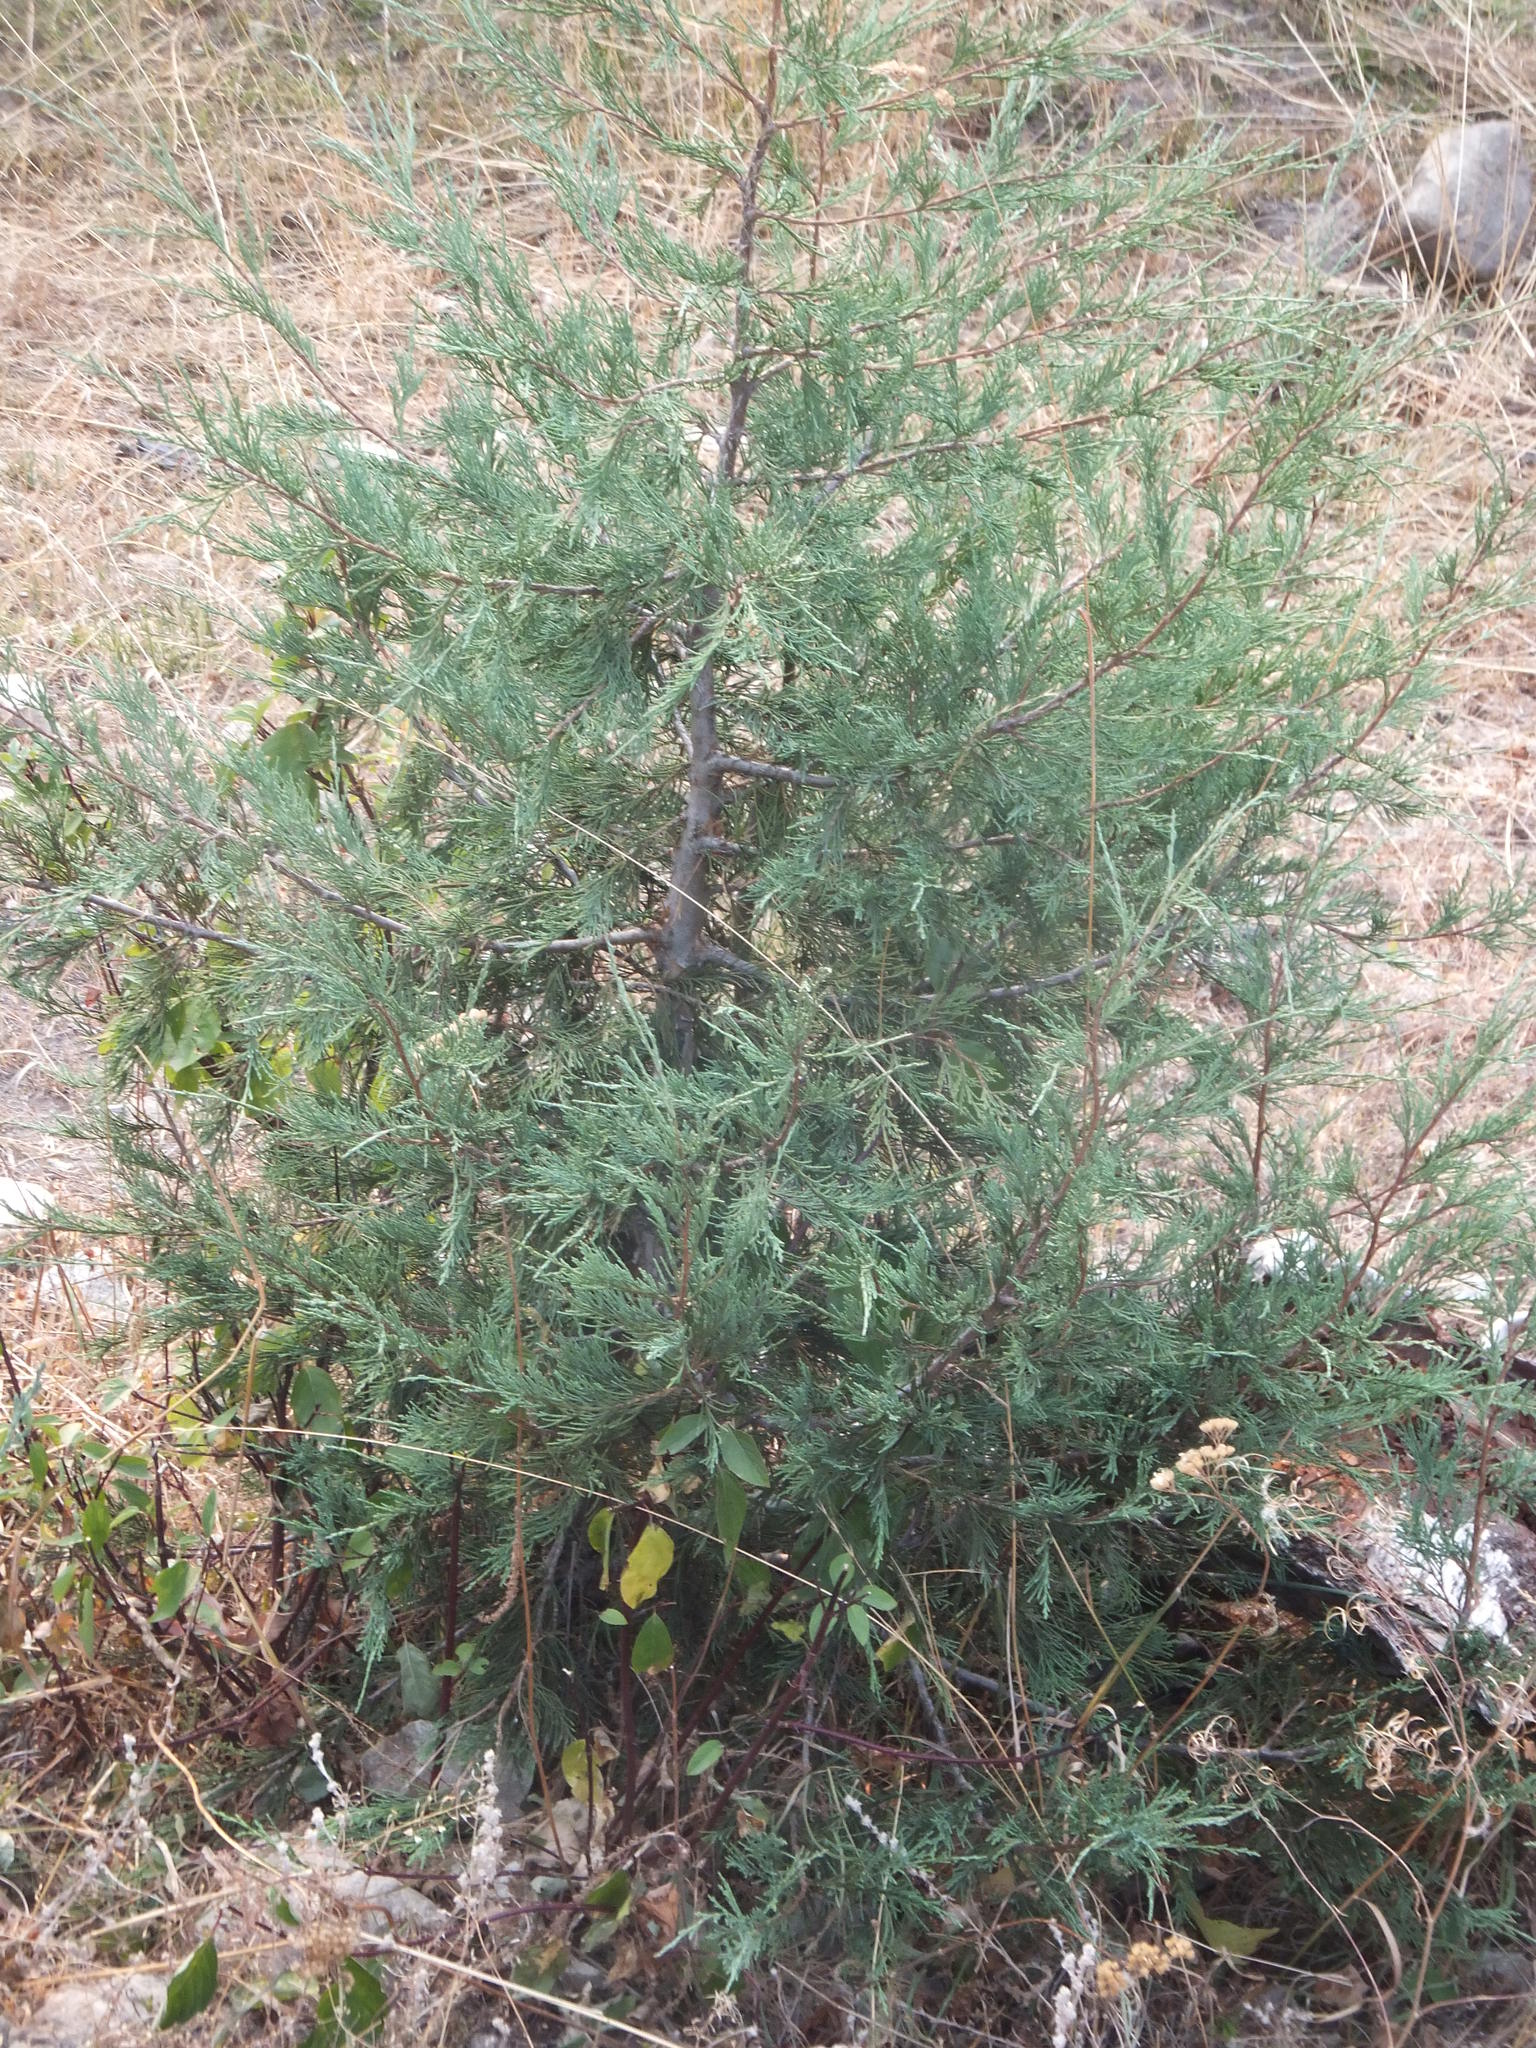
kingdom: Plantae
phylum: Tracheophyta
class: Pinopsida
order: Pinales
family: Cupressaceae
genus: Juniperus
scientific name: Juniperus scopulorum
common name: Rocky mountain juniper
